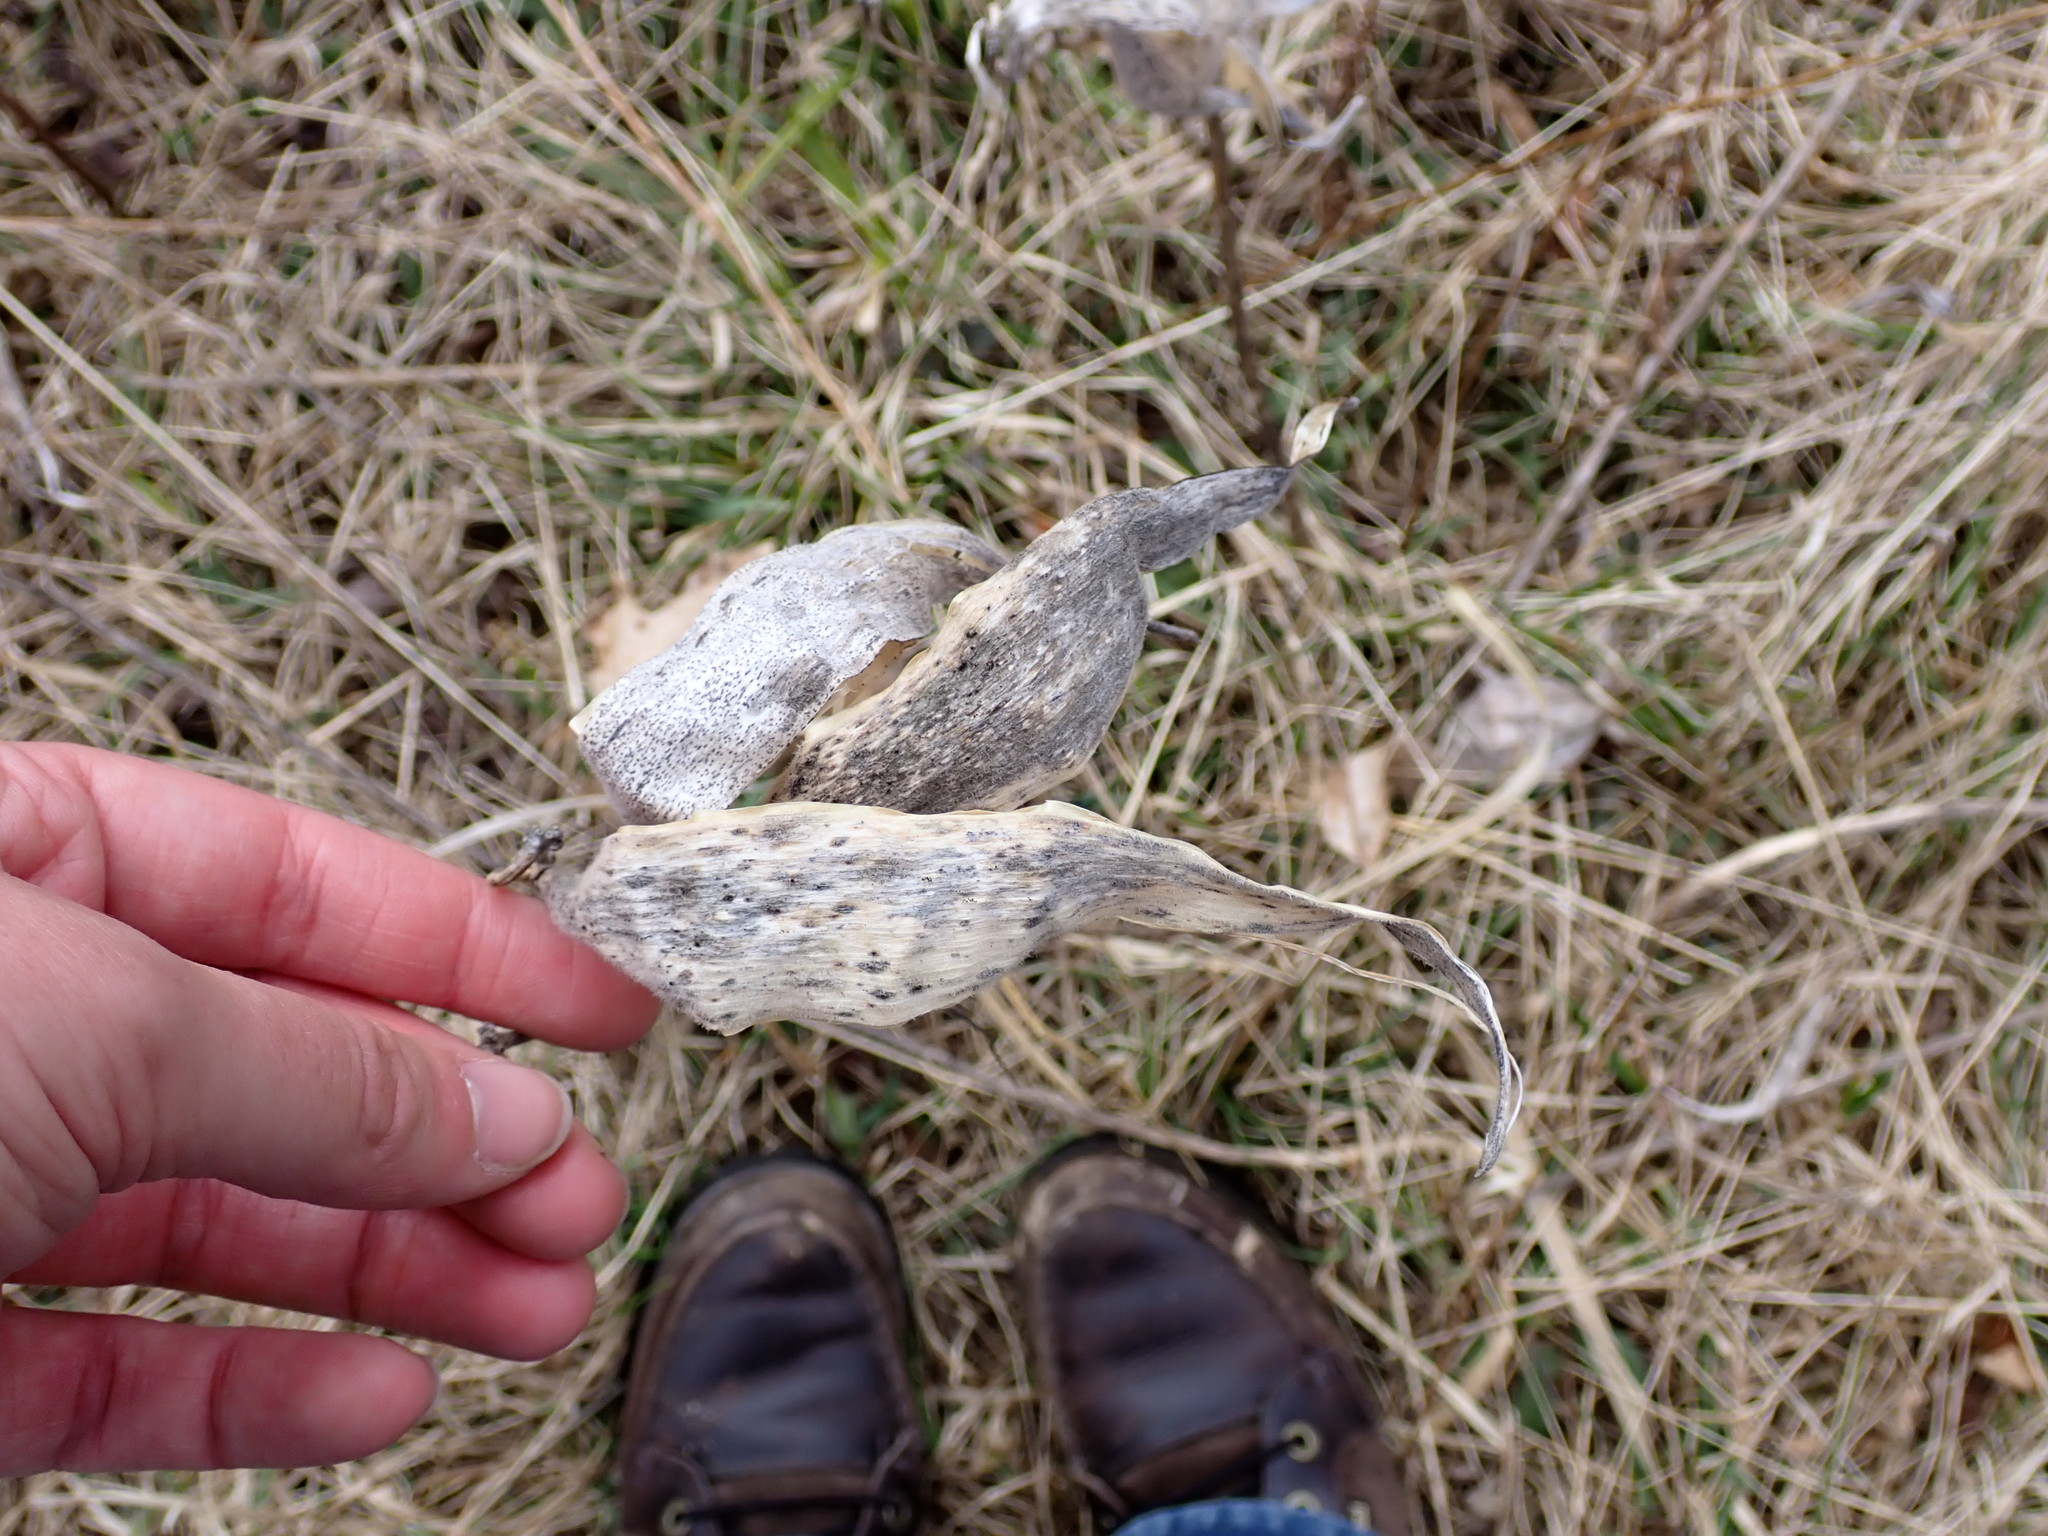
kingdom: Plantae
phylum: Tracheophyta
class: Magnoliopsida
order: Gentianales
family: Apocynaceae
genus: Asclepias
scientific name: Asclepias syriaca
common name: Common milkweed
